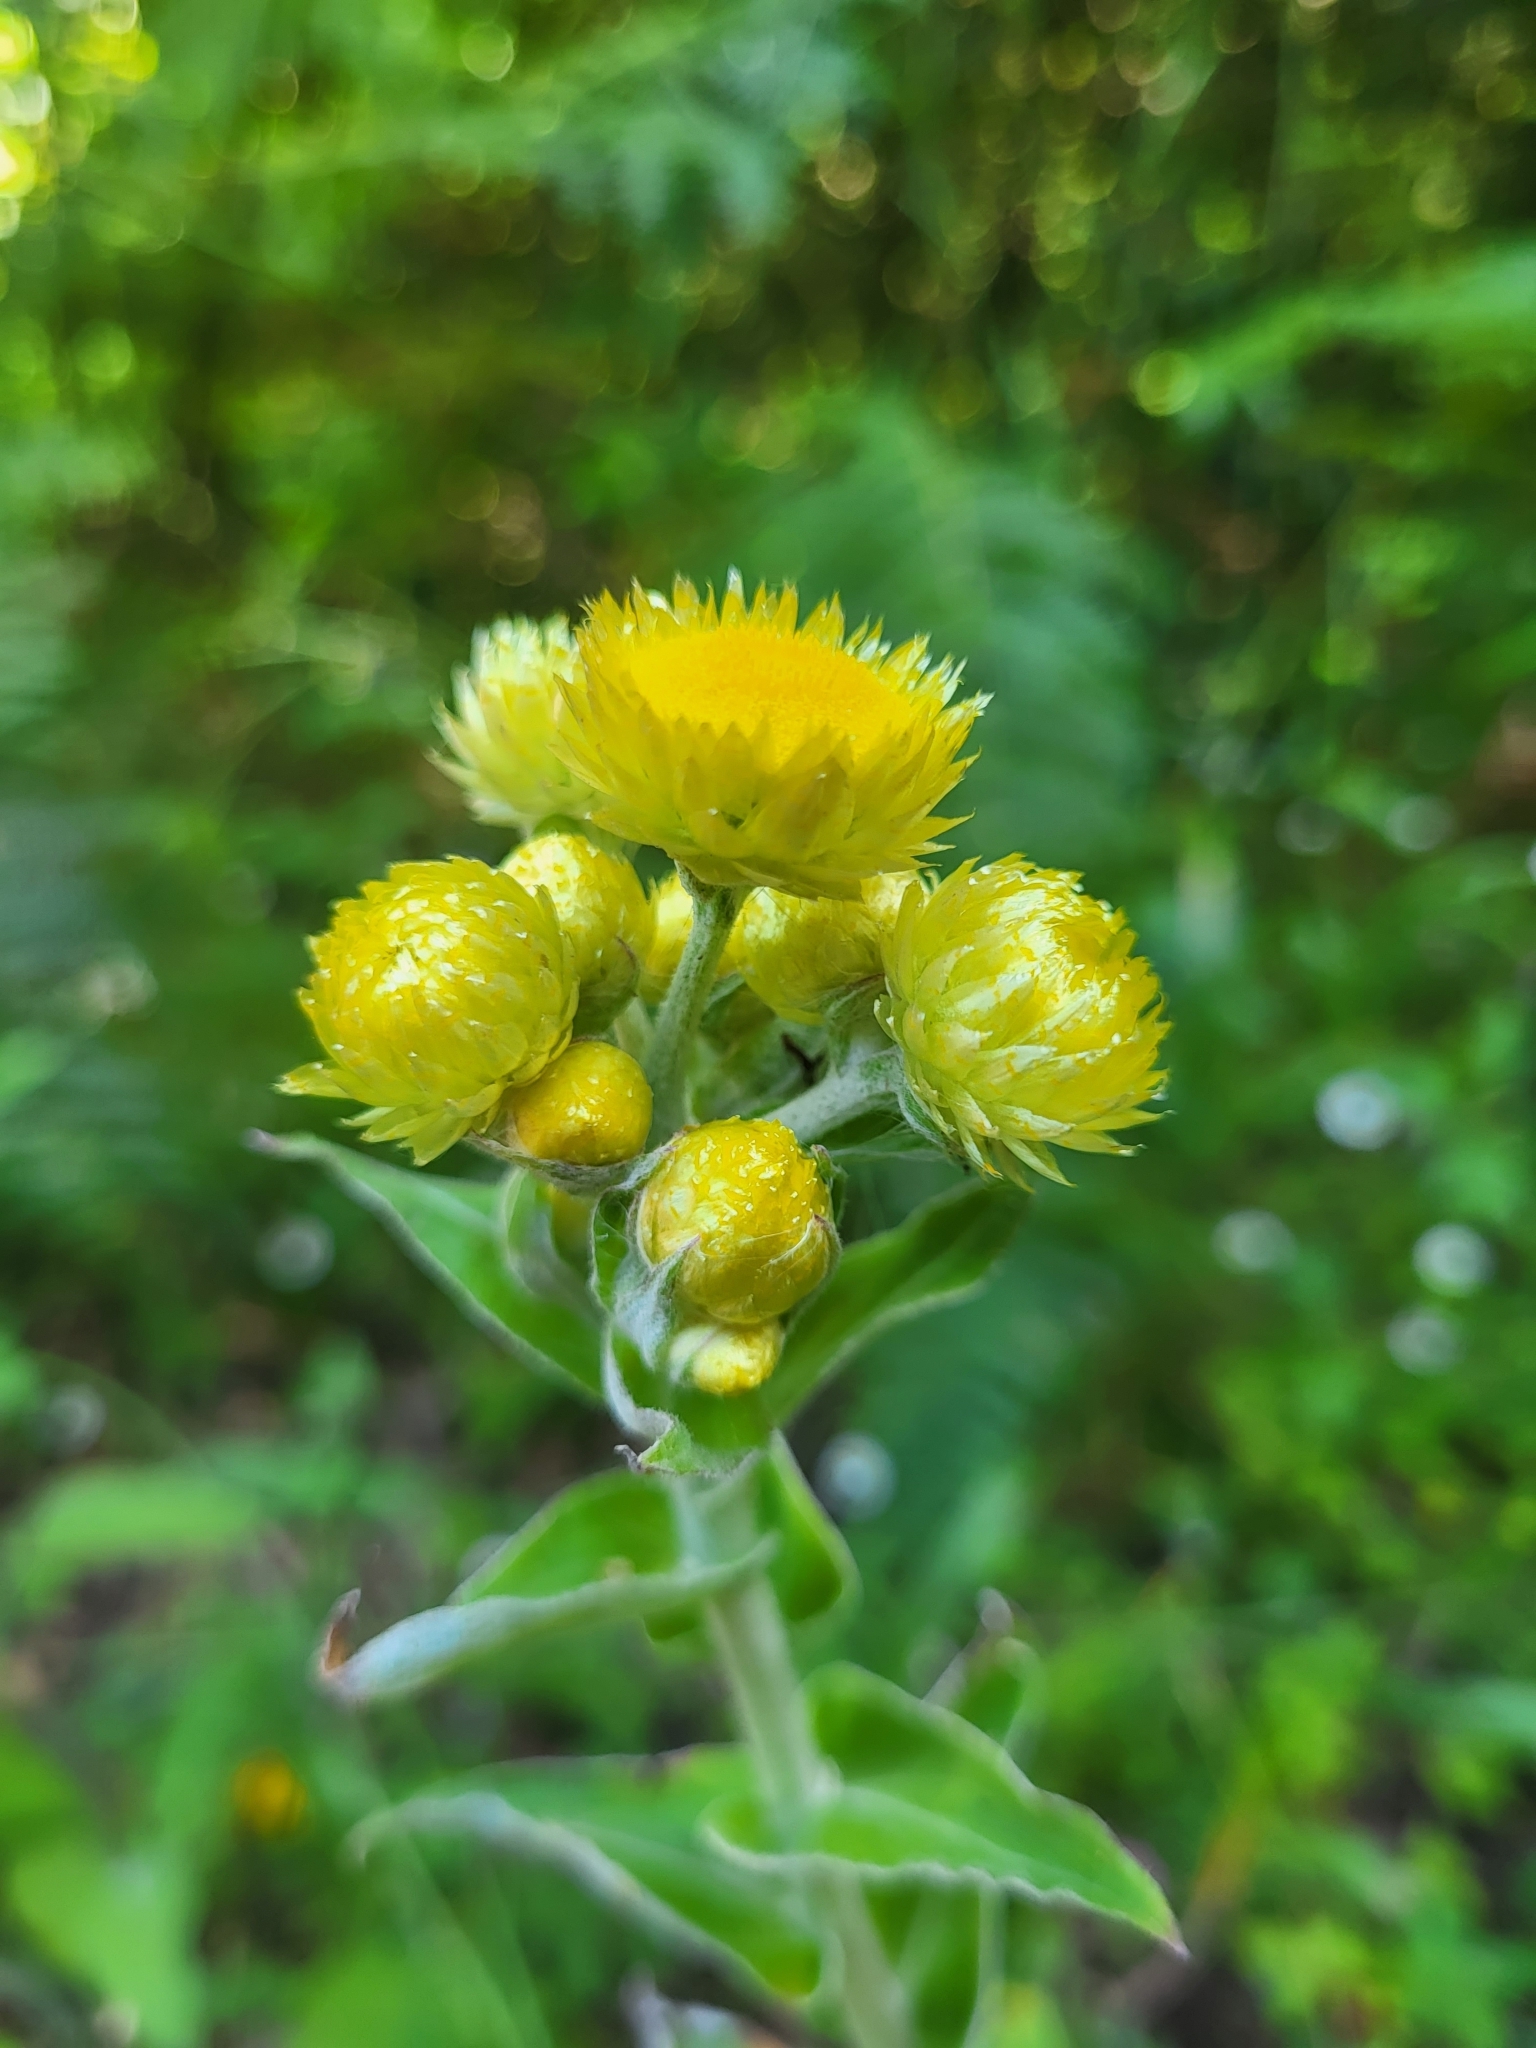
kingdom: Plantae
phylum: Tracheophyta
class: Magnoliopsida
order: Asterales
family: Asteraceae
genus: Helichrysum
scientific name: Helichrysum foetidum
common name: Stinking everlasting
